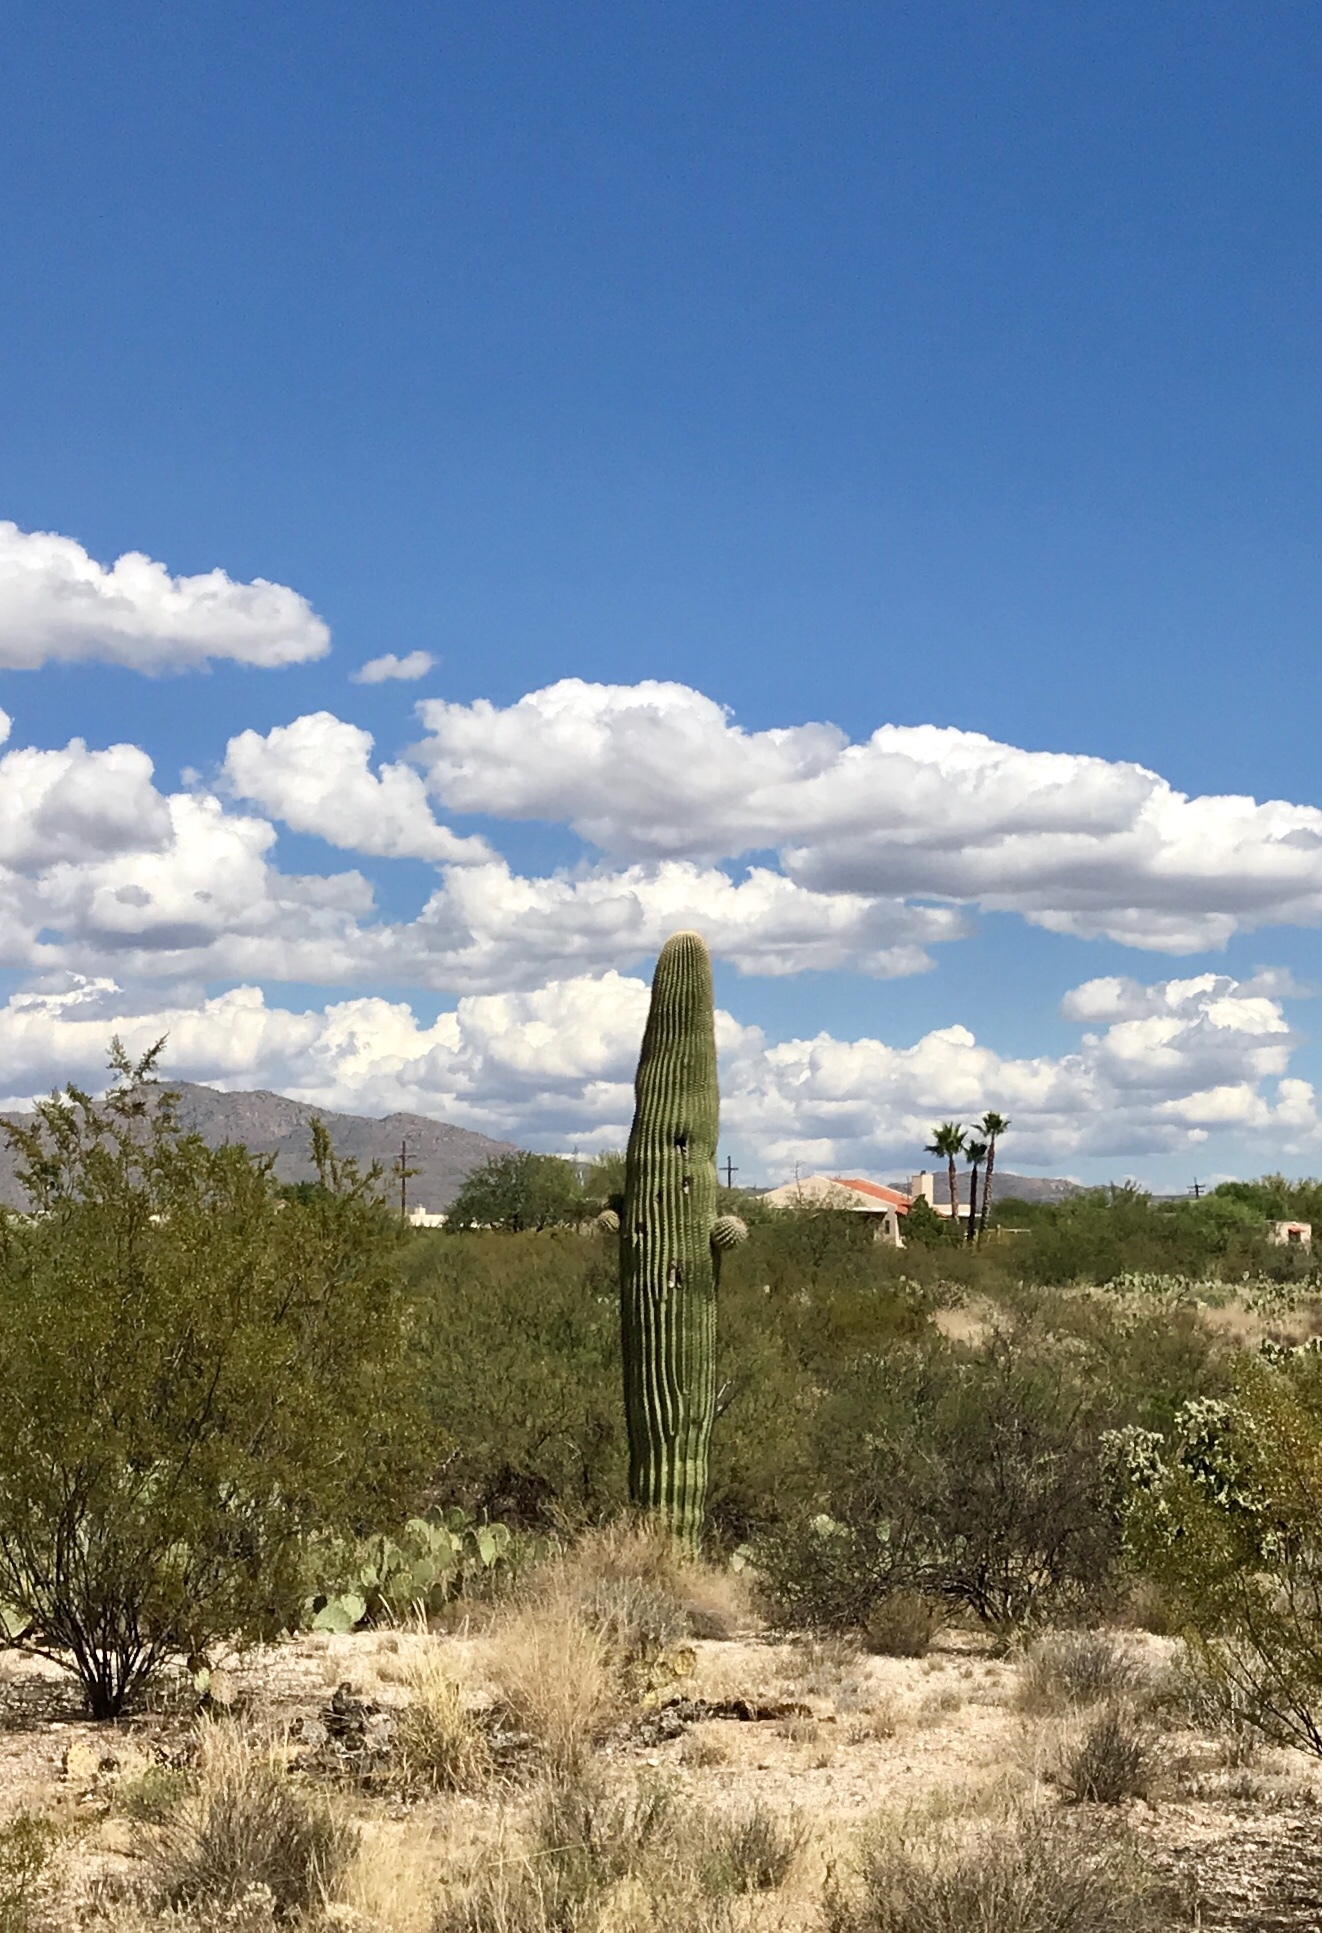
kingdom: Plantae
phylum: Tracheophyta
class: Magnoliopsida
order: Caryophyllales
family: Cactaceae
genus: Carnegiea
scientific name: Carnegiea gigantea
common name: Saguaro
